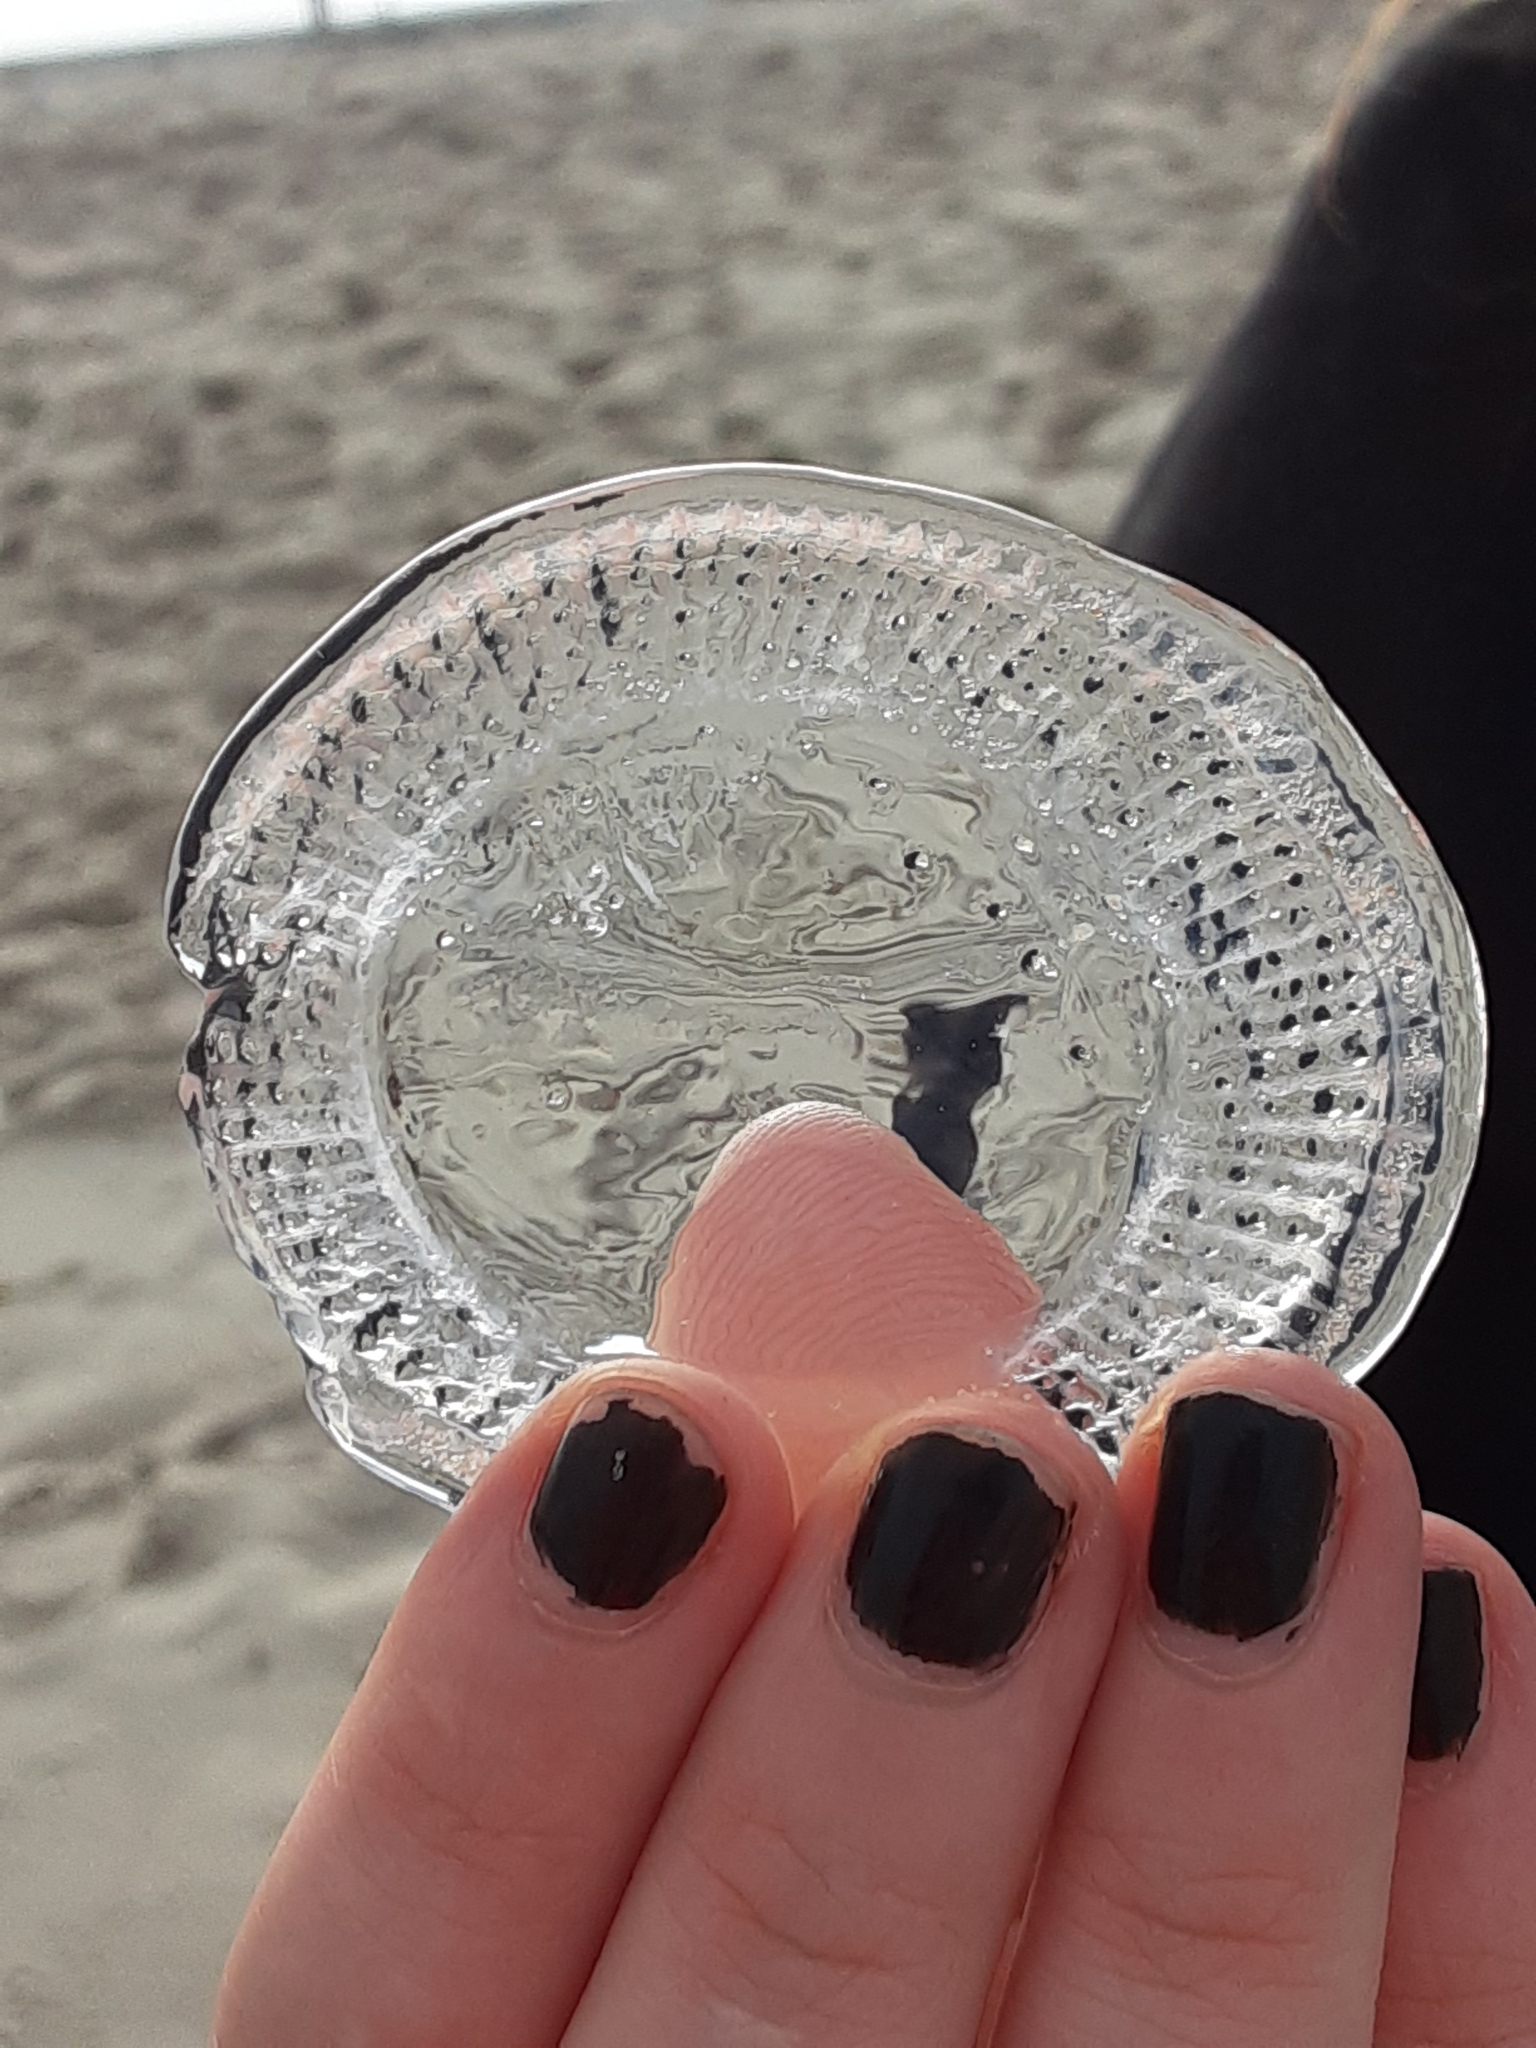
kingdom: Animalia
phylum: Cnidaria
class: Hydrozoa
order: Leptothecata
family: Aequoreidae
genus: Rhacostoma
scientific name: Rhacostoma atlanticum
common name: Lined water jelly
